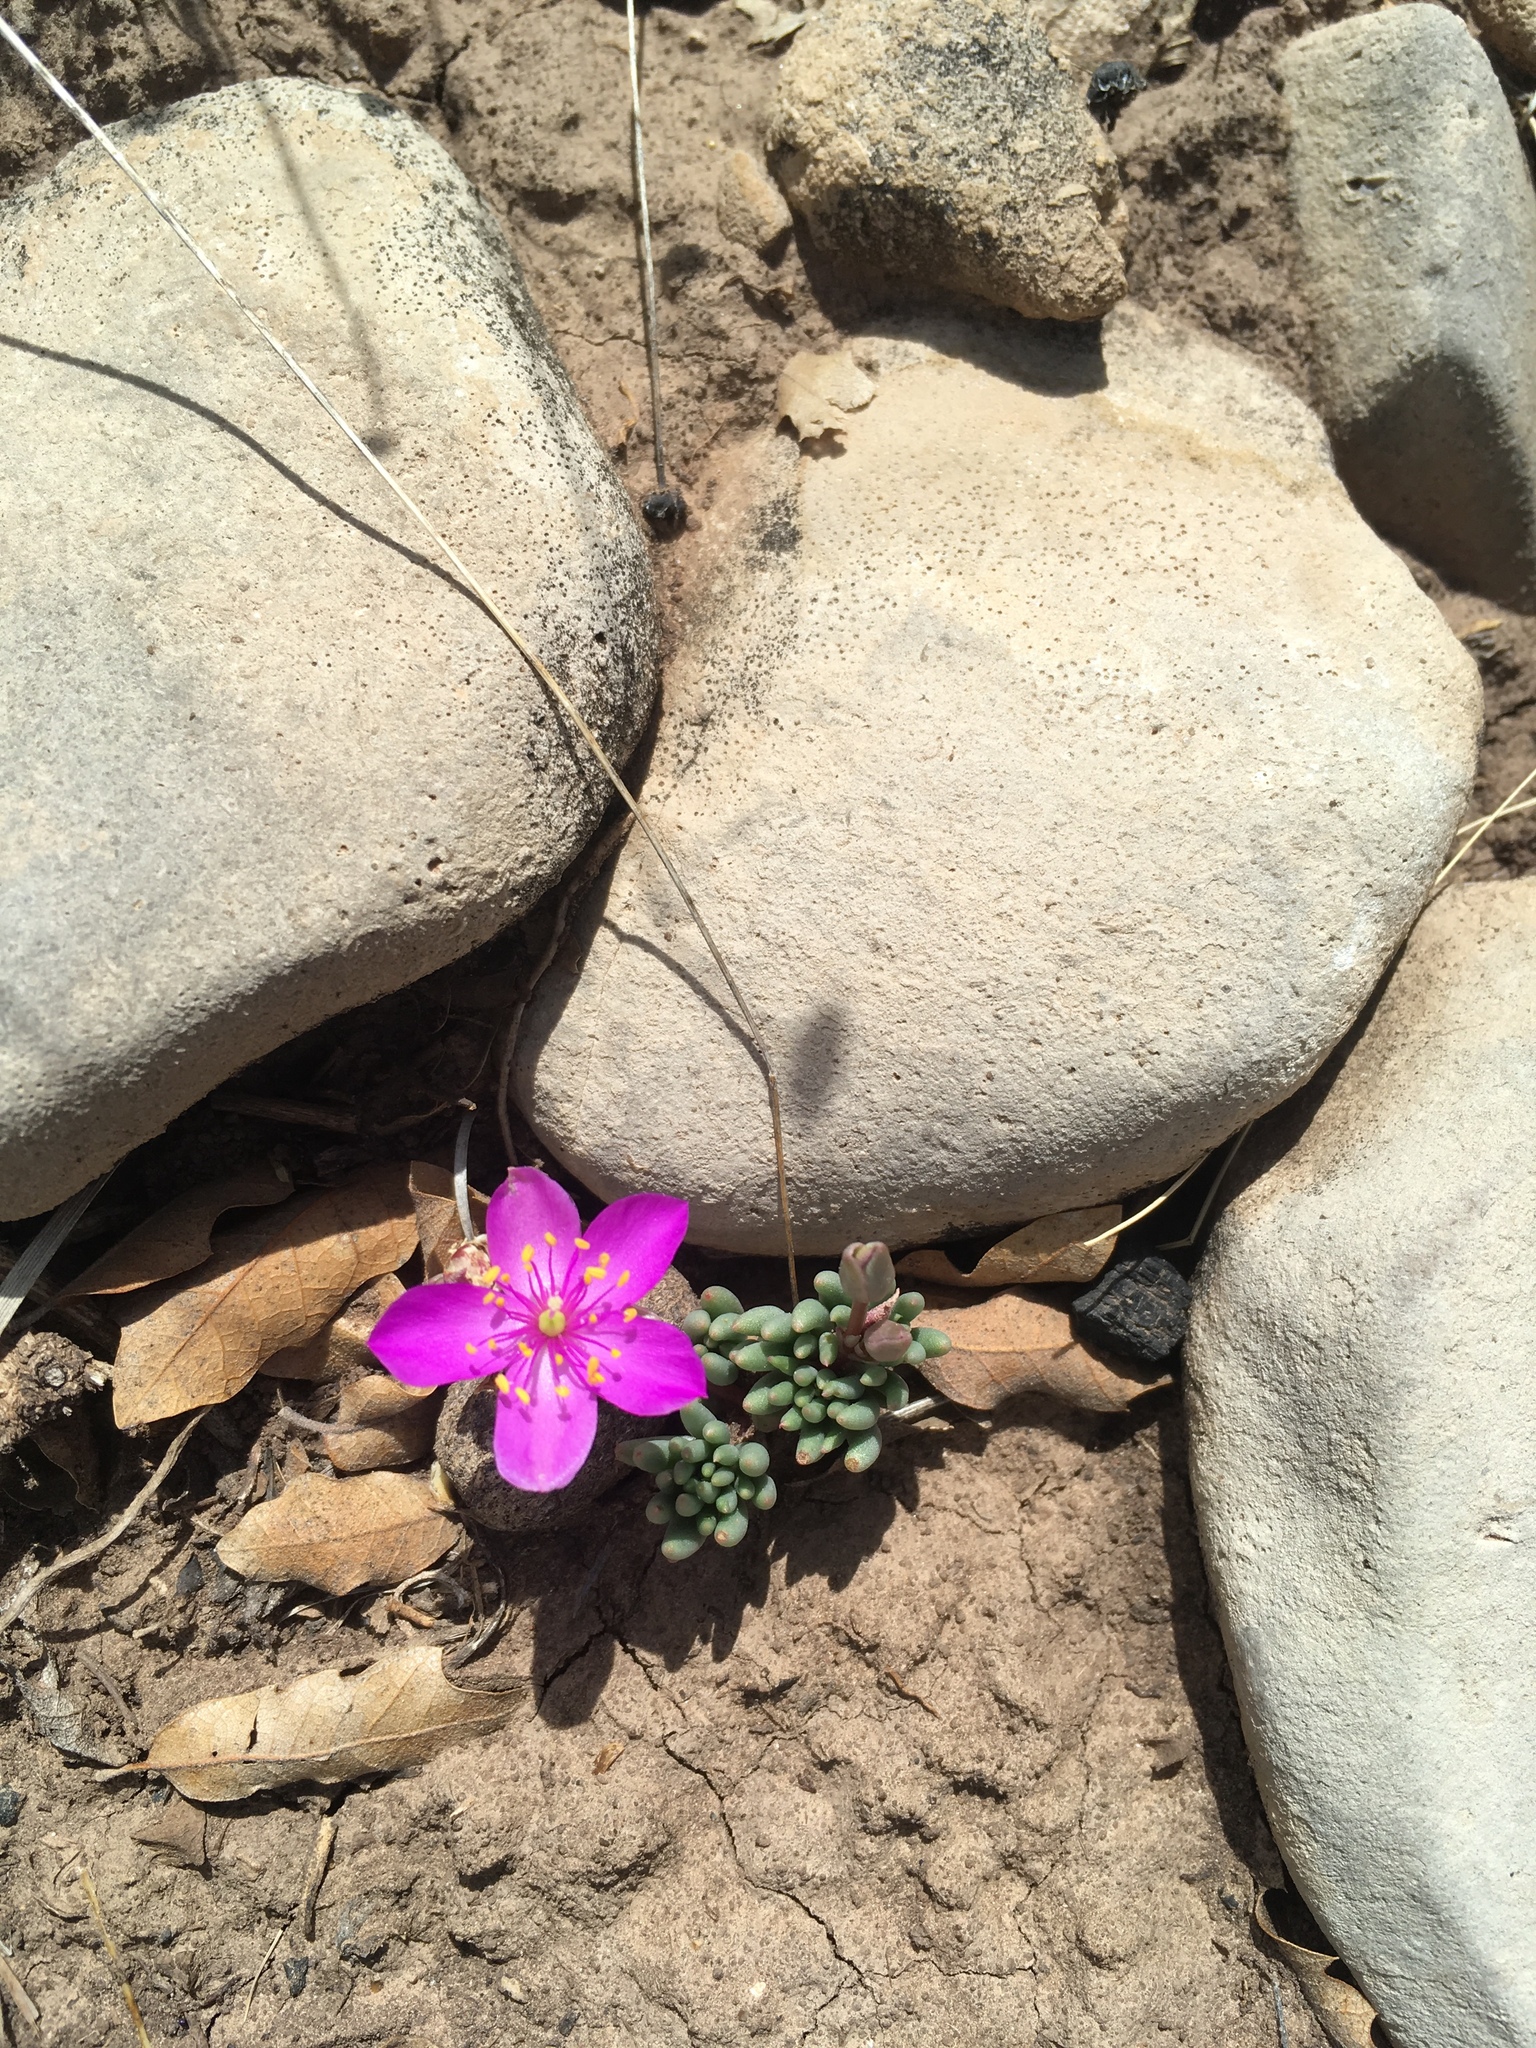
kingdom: Plantae
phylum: Tracheophyta
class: Magnoliopsida
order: Caryophyllales
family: Montiaceae
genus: Phemeranthus
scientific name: Phemeranthus brevicaulis
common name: Dwarf fameflower
